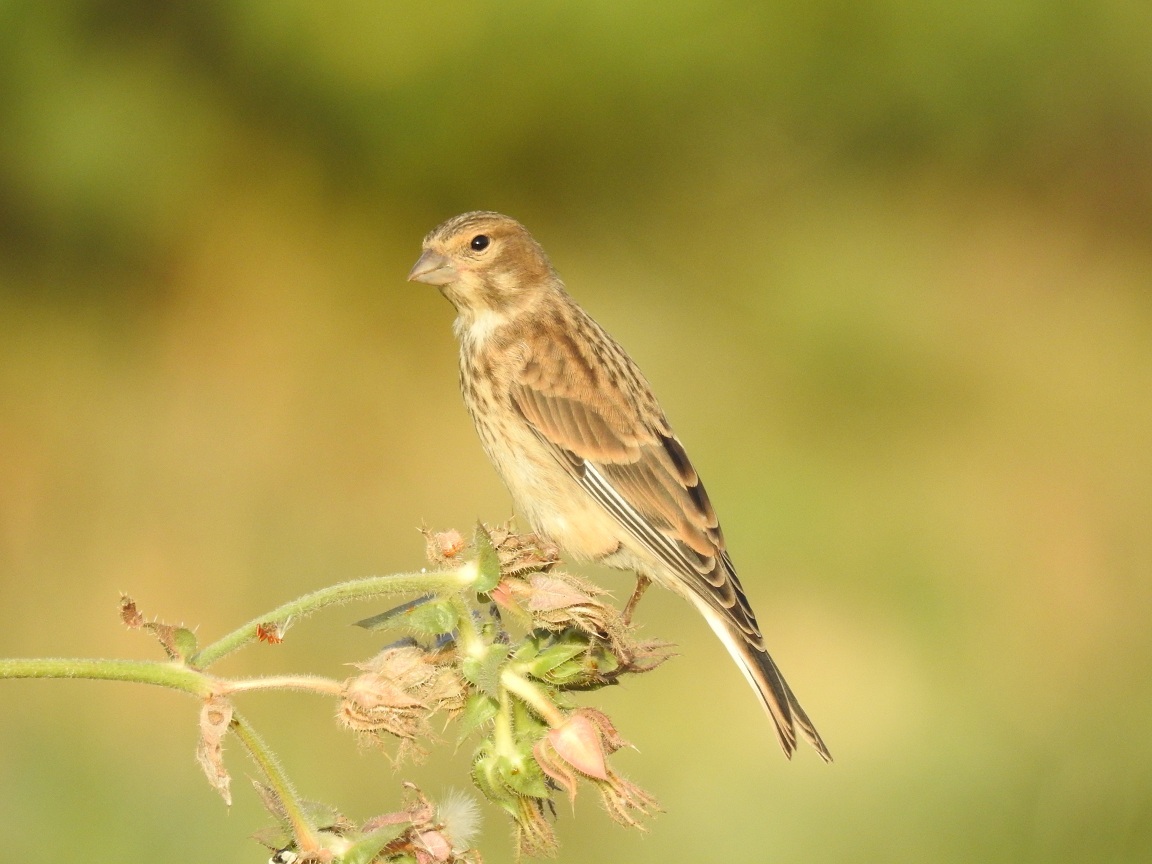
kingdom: Animalia
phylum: Chordata
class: Aves
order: Passeriformes
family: Fringillidae
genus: Linaria
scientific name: Linaria cannabina
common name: Common linnet
